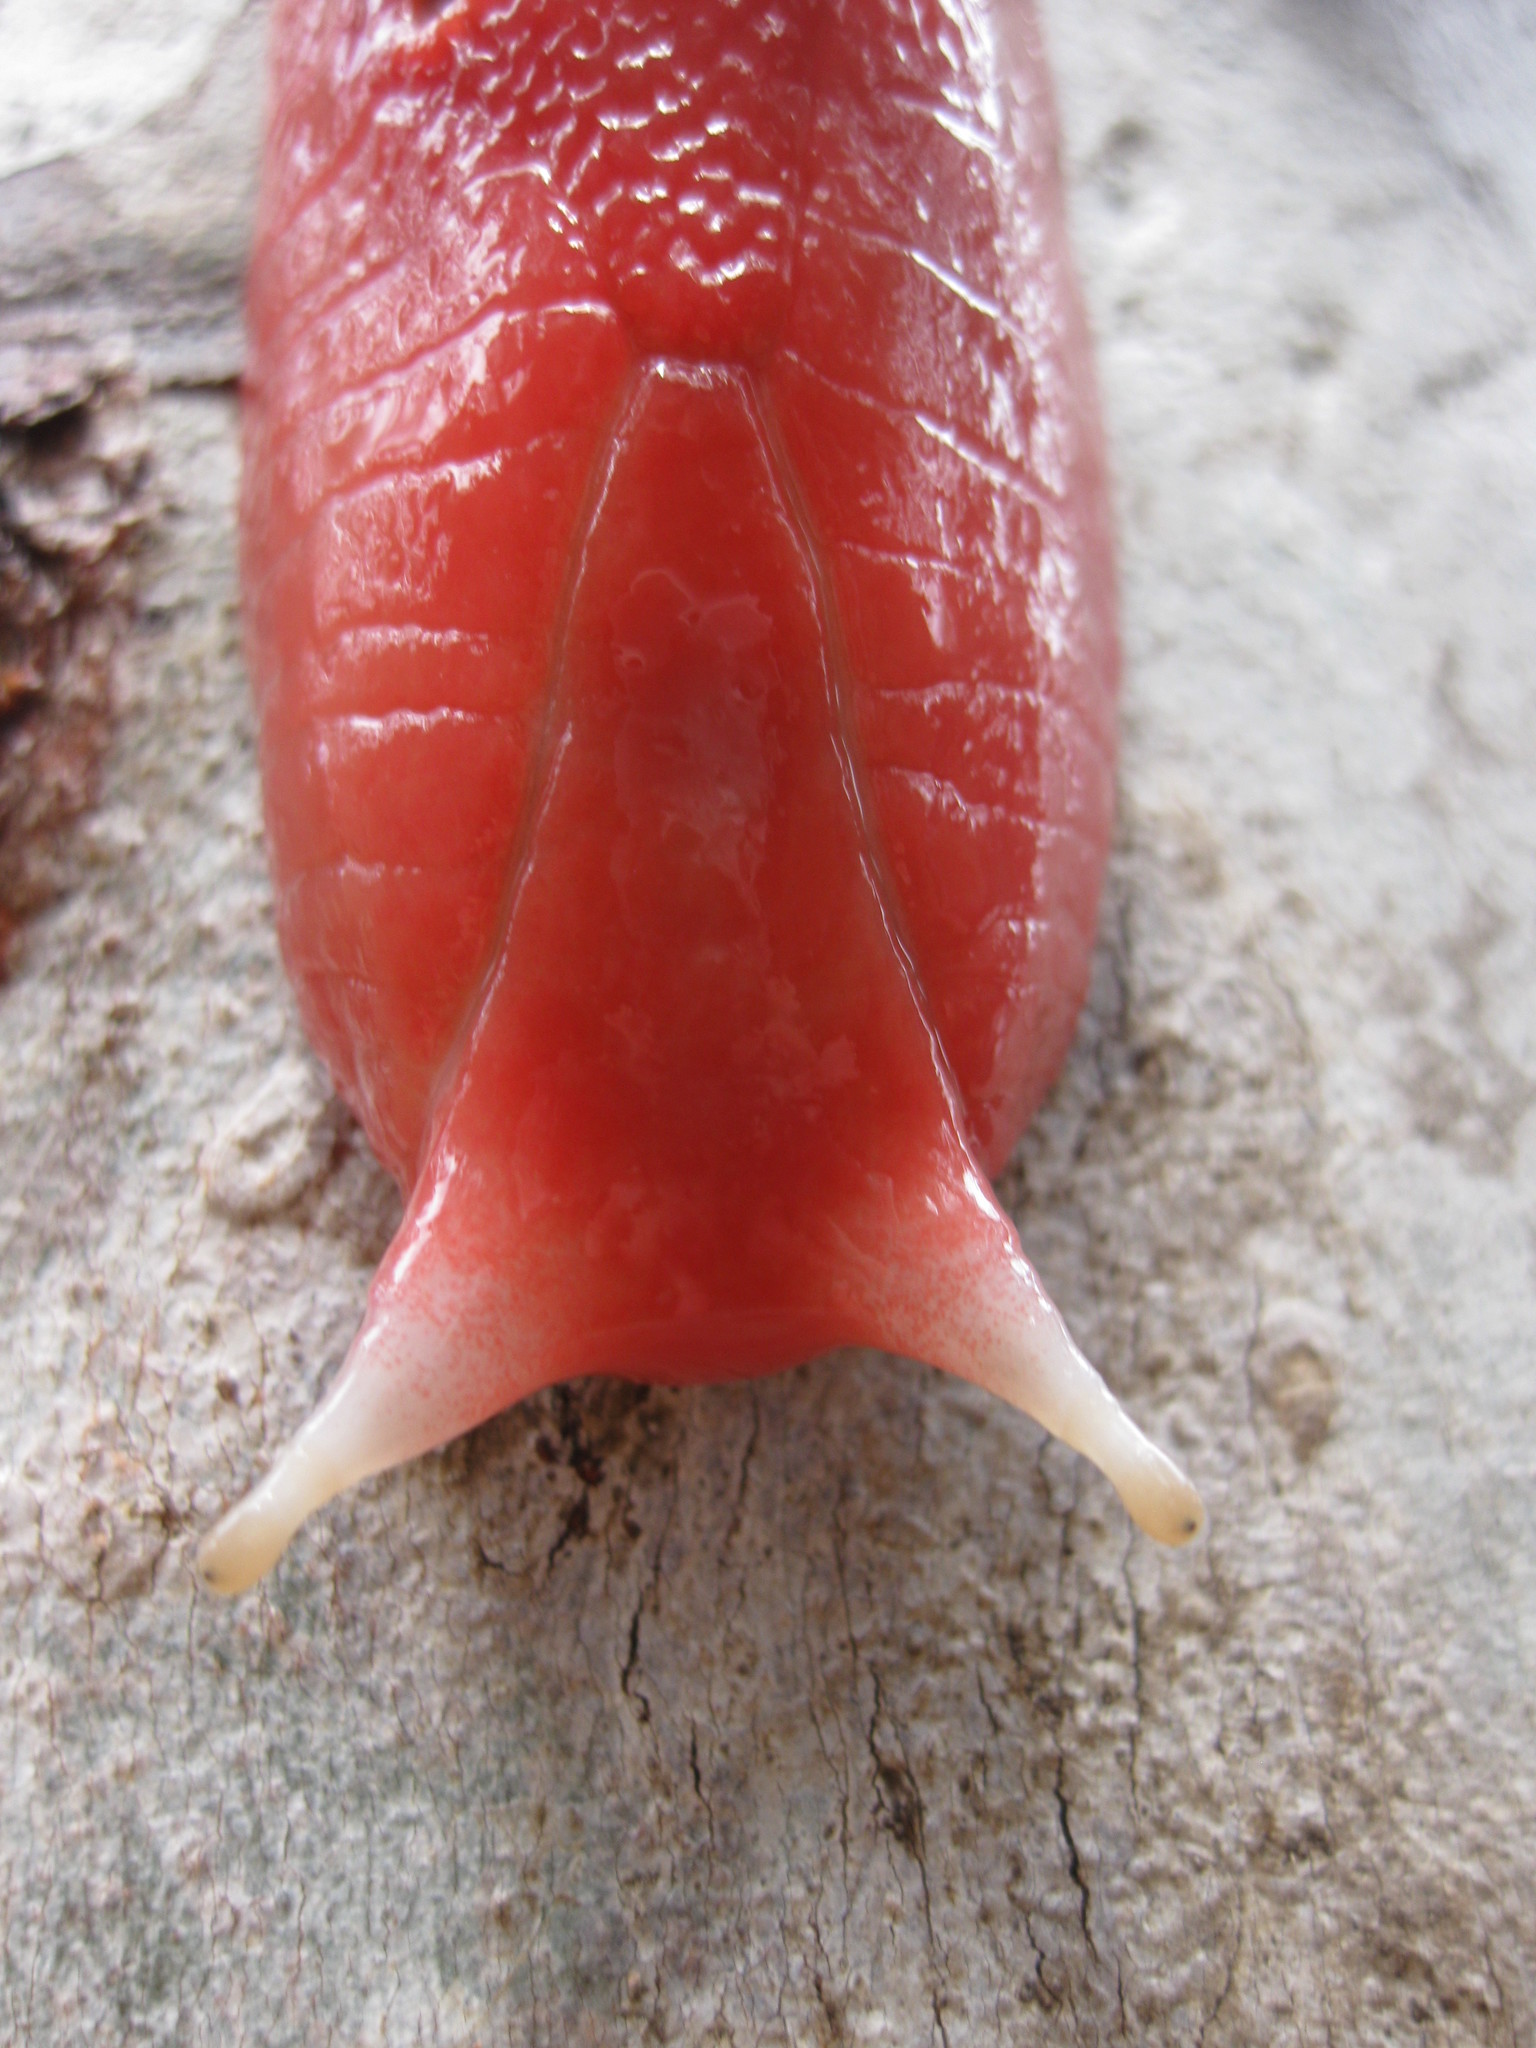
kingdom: Animalia
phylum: Mollusca
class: Gastropoda
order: Stylommatophora
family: Athoracophoridae
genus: Triboniophorus
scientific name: Triboniophorus
